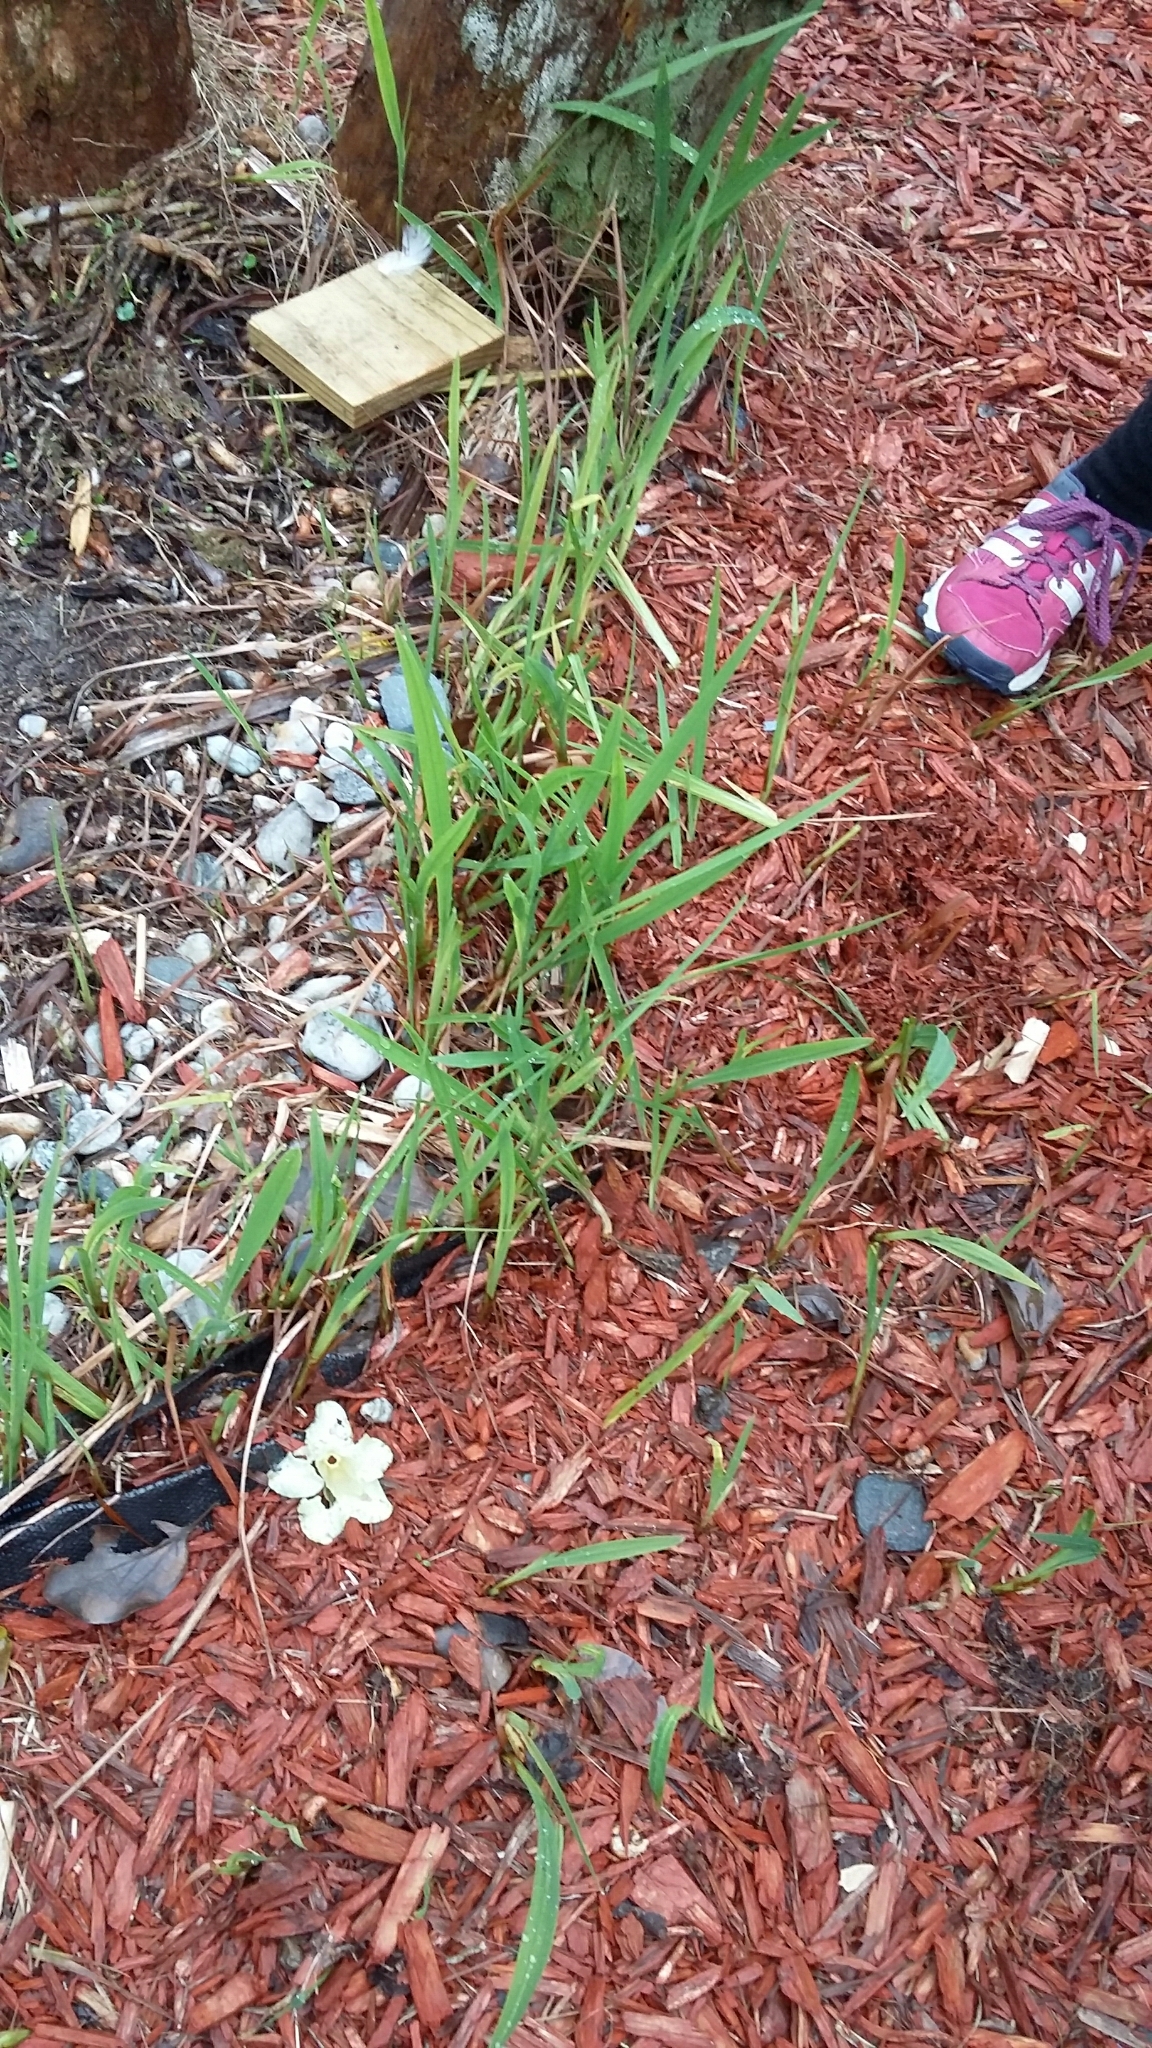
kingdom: Plantae
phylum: Tracheophyta
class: Liliopsida
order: Asparagales
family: Iridaceae
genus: Crocosmia
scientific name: Crocosmia crocosmiiflora
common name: Montbretia
